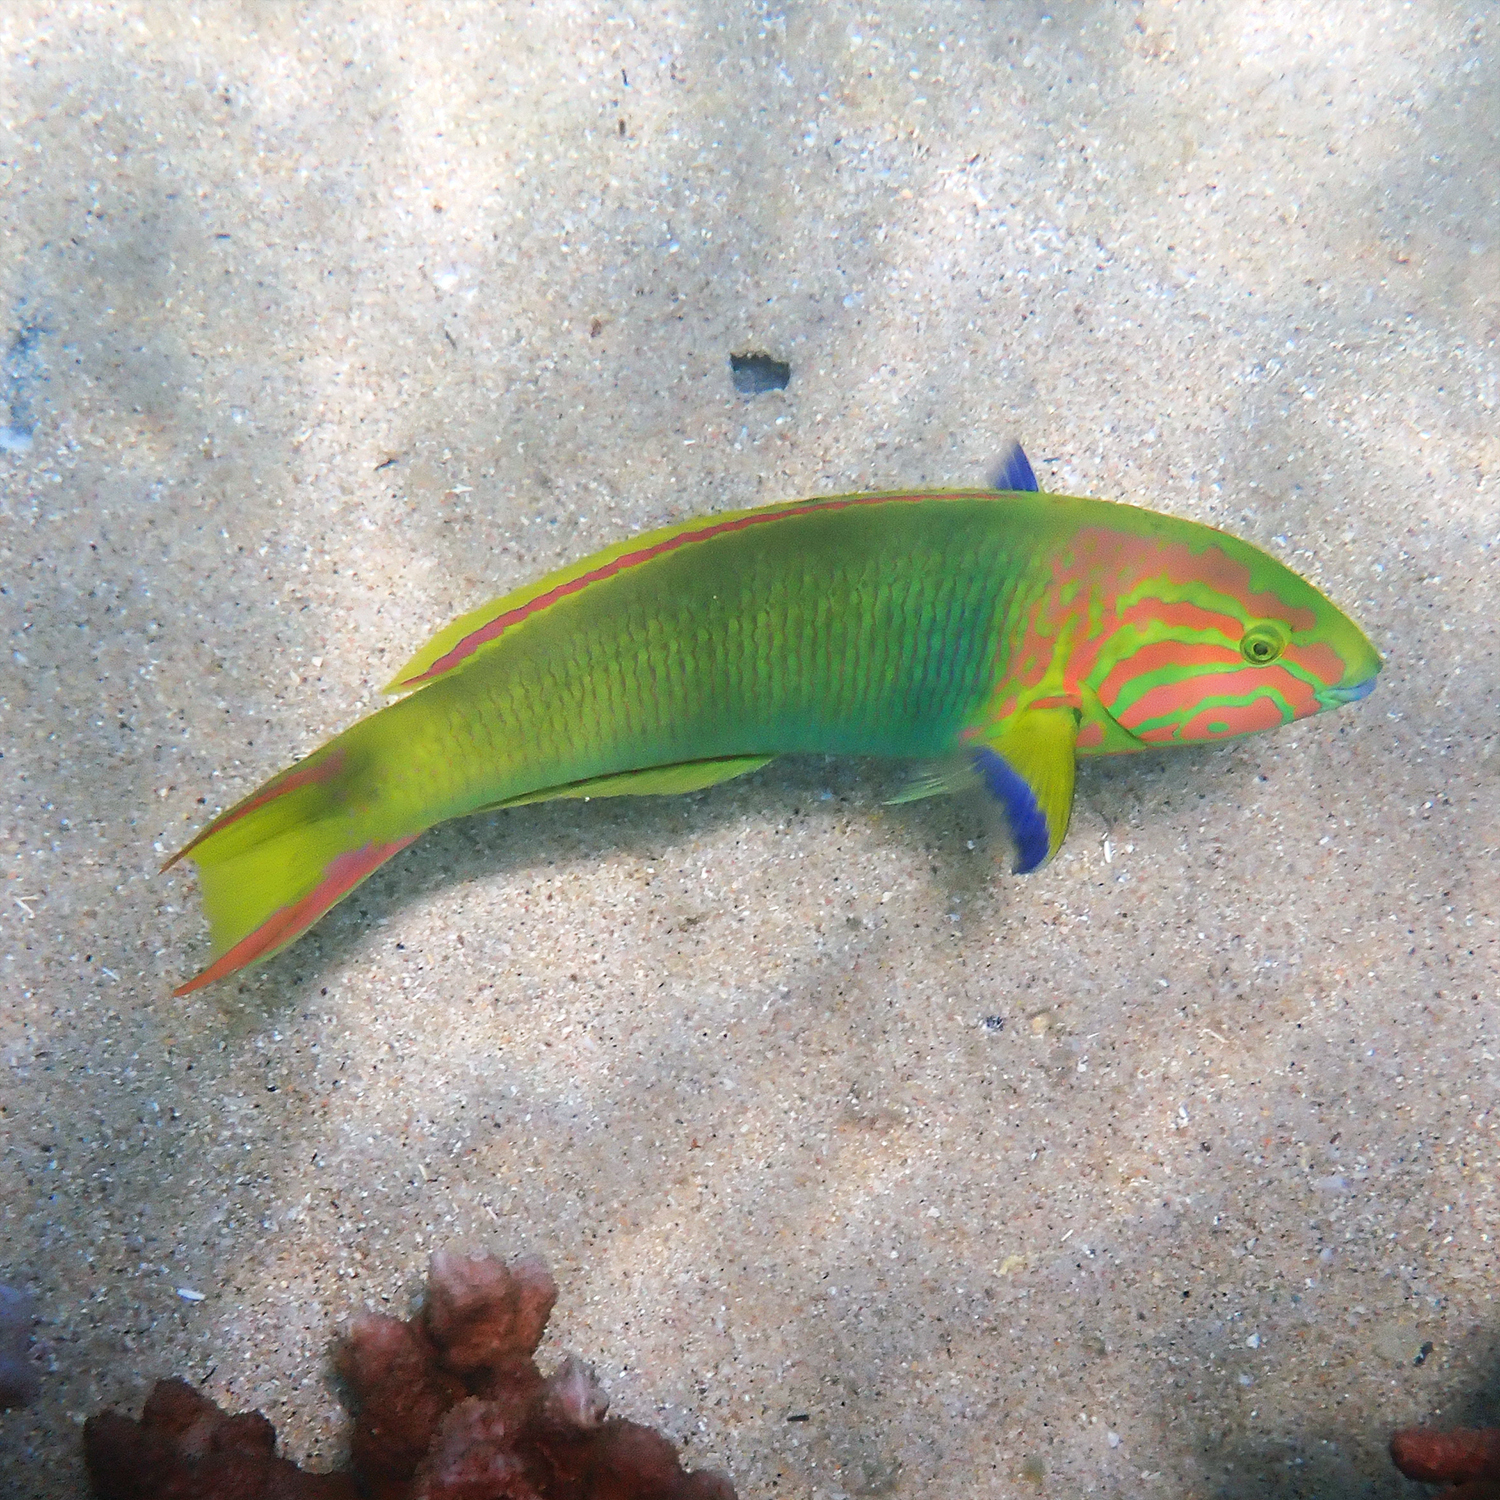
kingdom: Animalia
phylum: Chordata
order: Perciformes
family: Labridae
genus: Thalassoma
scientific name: Thalassoma lutescens
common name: Green moon wrasse
